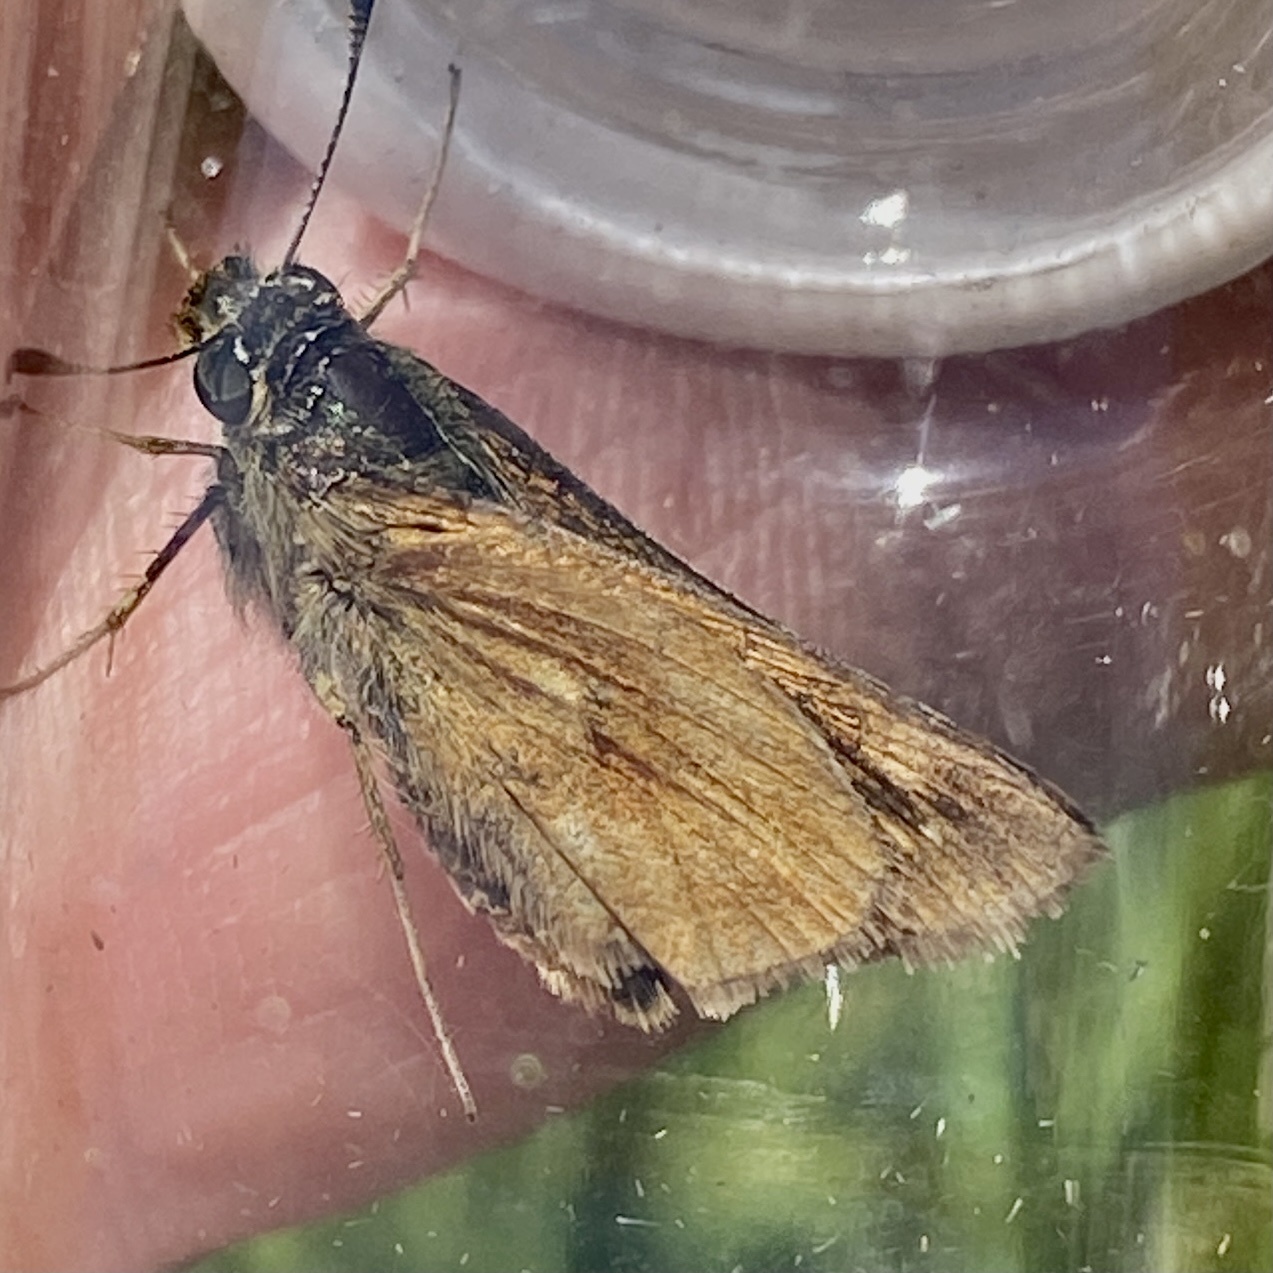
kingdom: Animalia
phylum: Arthropoda
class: Insecta
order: Lepidoptera
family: Hesperiidae
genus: Polites
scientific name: Polites mystic
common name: Long dash
